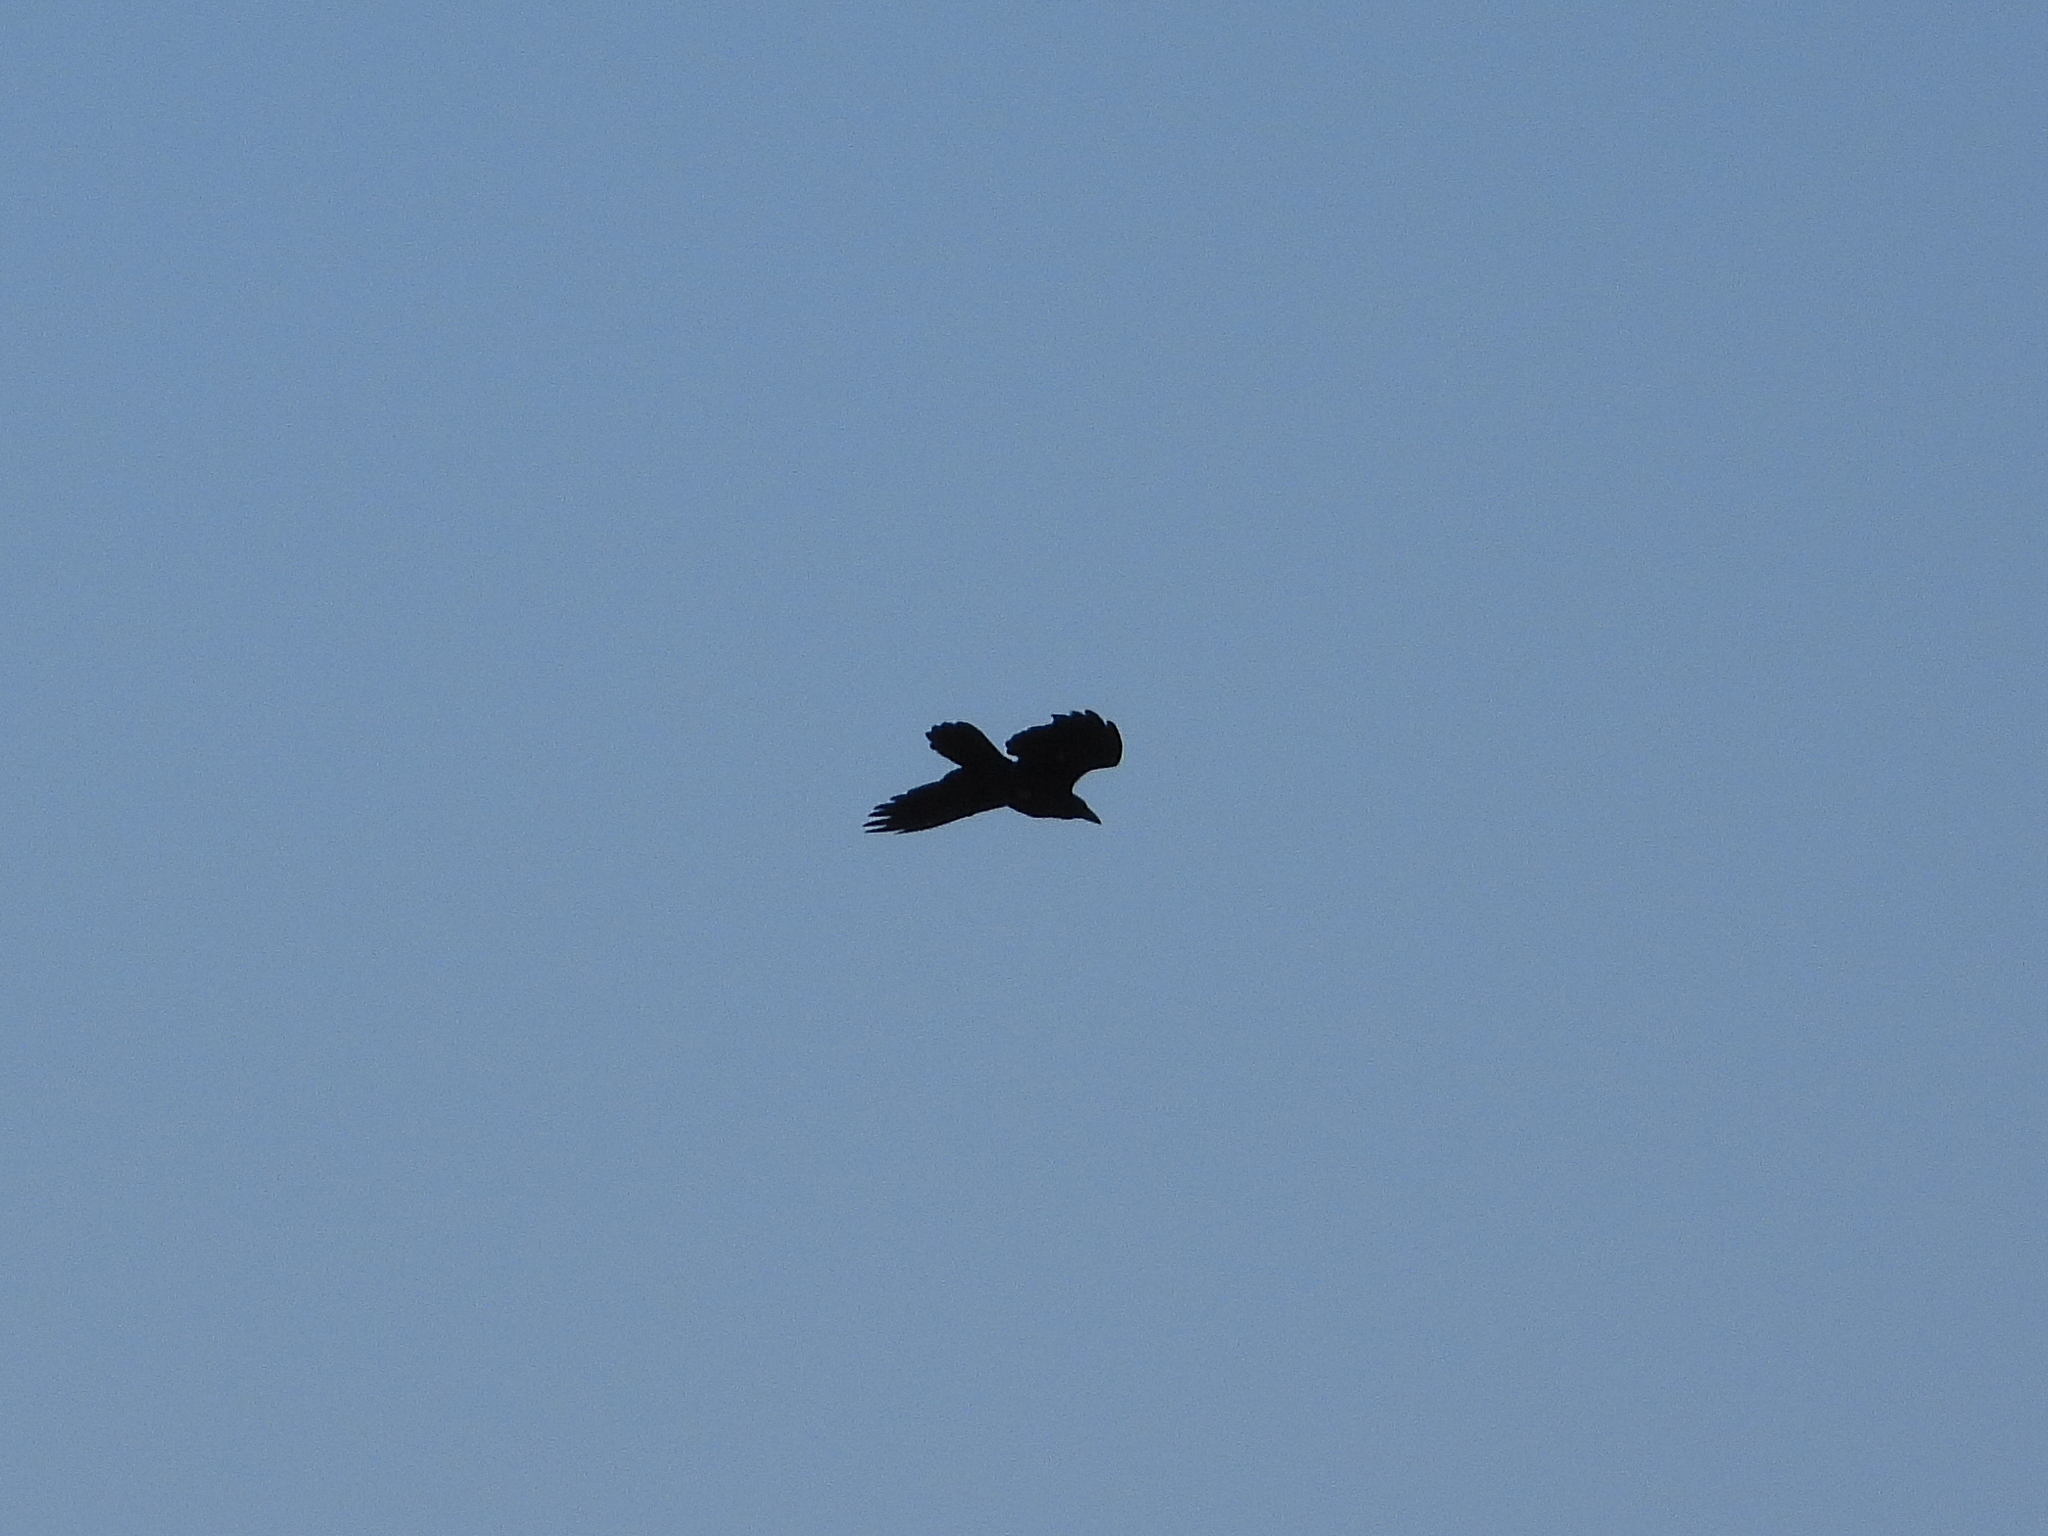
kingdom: Animalia
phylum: Chordata
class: Aves
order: Passeriformes
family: Corvidae
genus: Corvus
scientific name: Corvus corax
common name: Common raven
